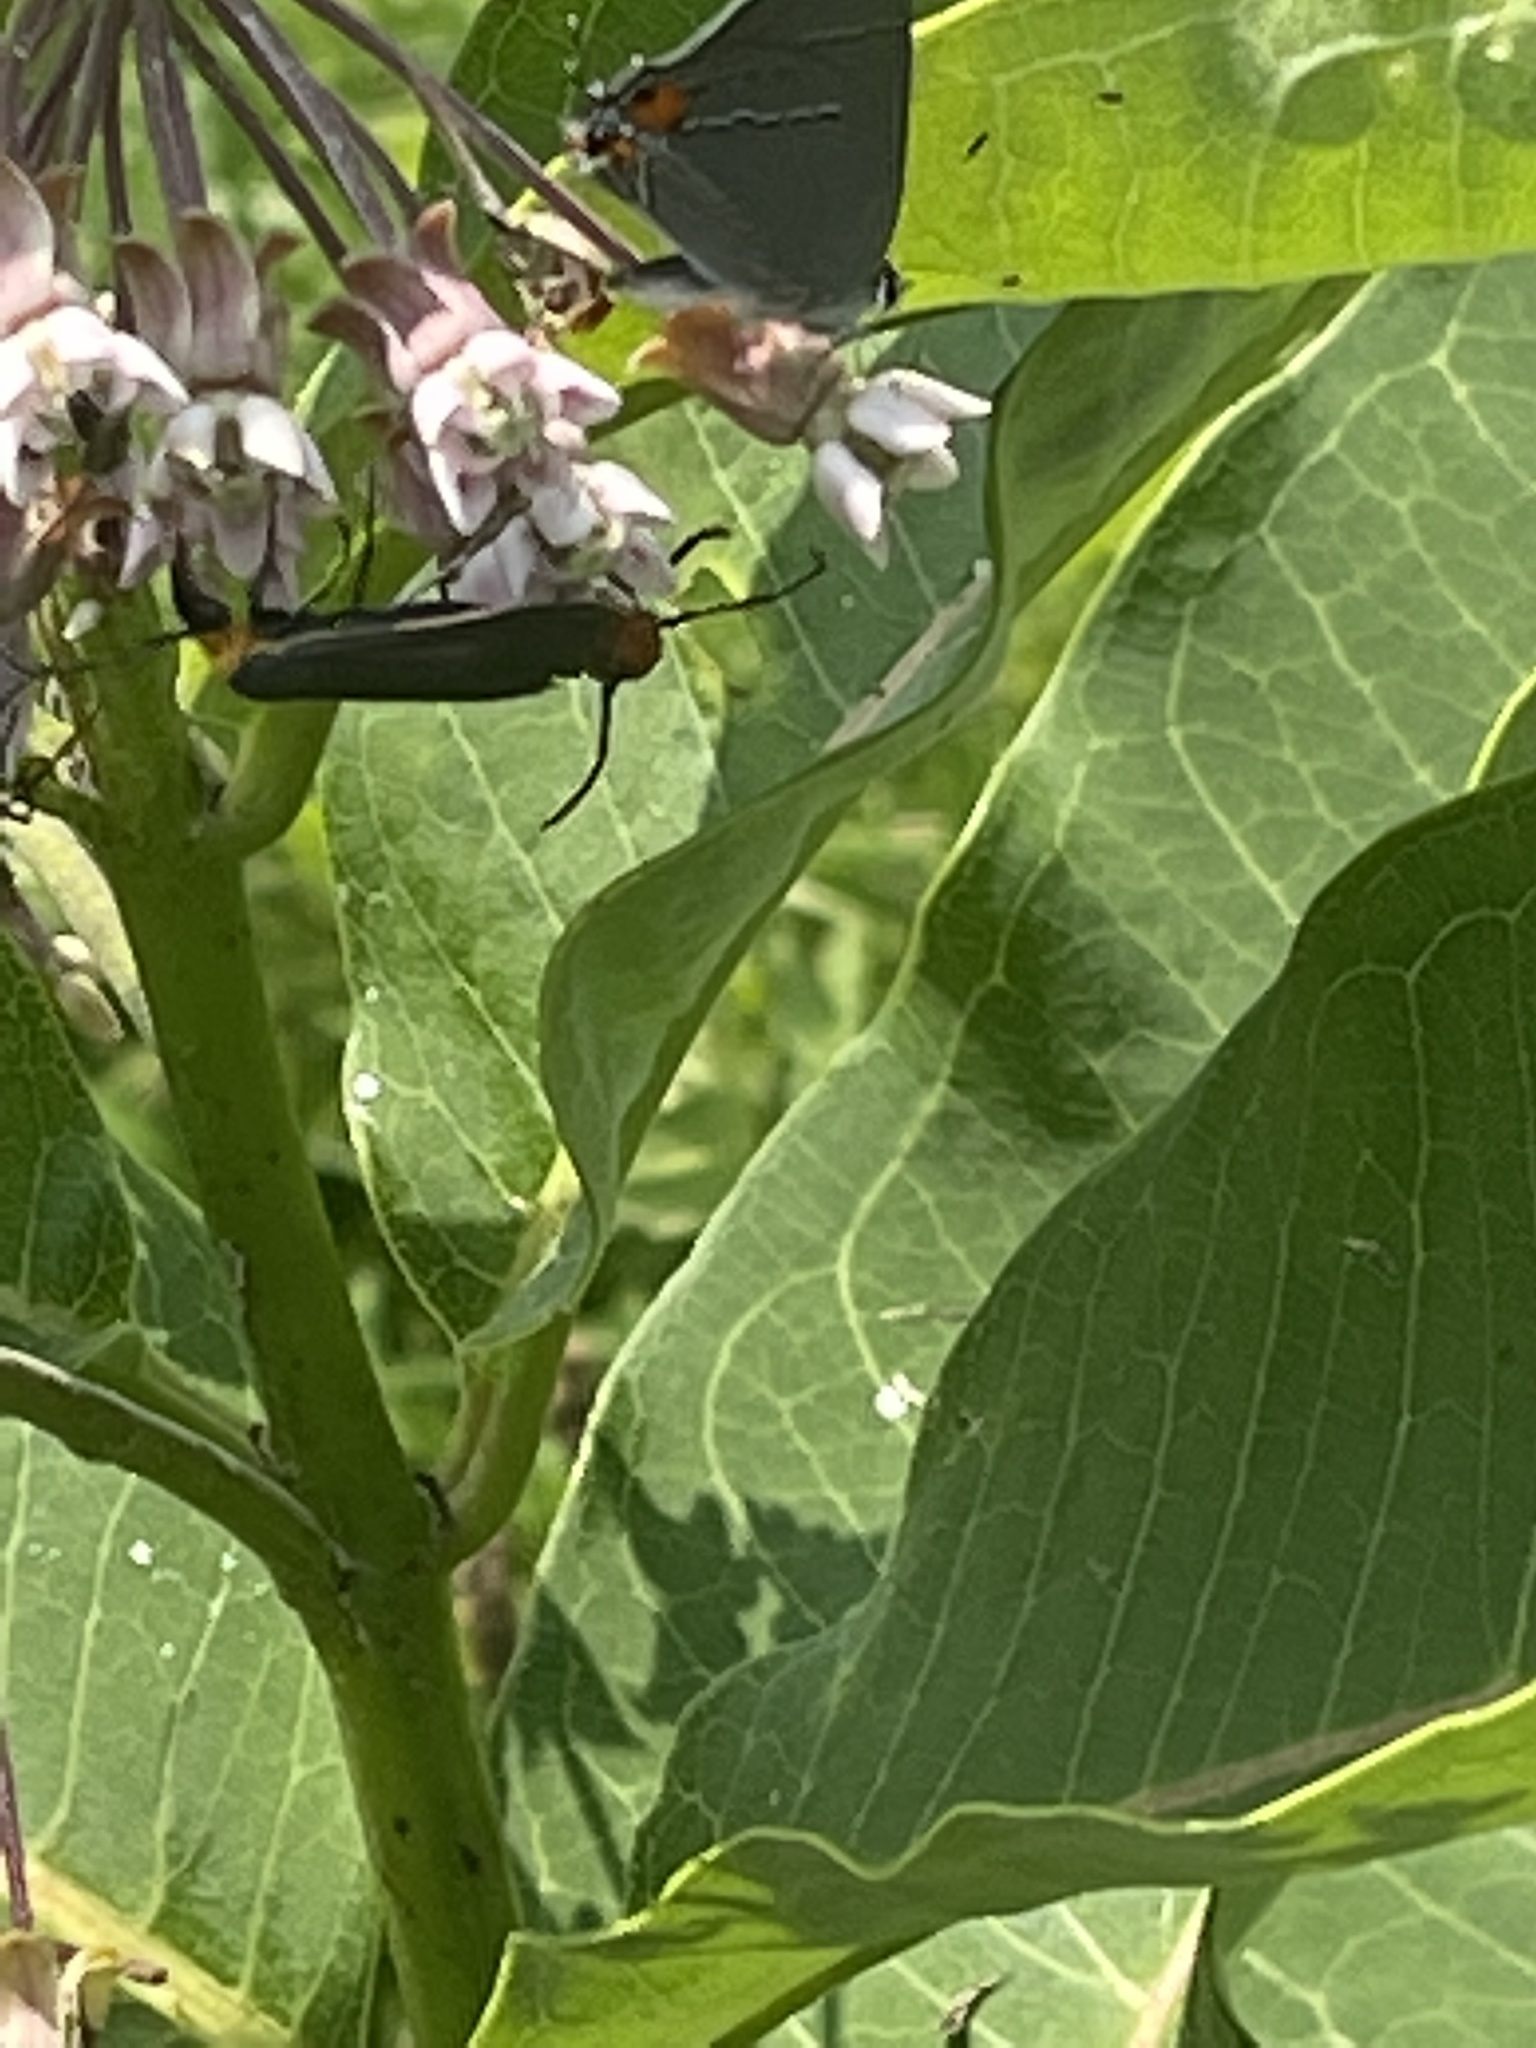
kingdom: Animalia
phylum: Arthropoda
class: Insecta
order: Lepidoptera
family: Erebidae
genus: Cisseps
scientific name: Cisseps fulvicollis
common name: Yellow-collared scape moth
